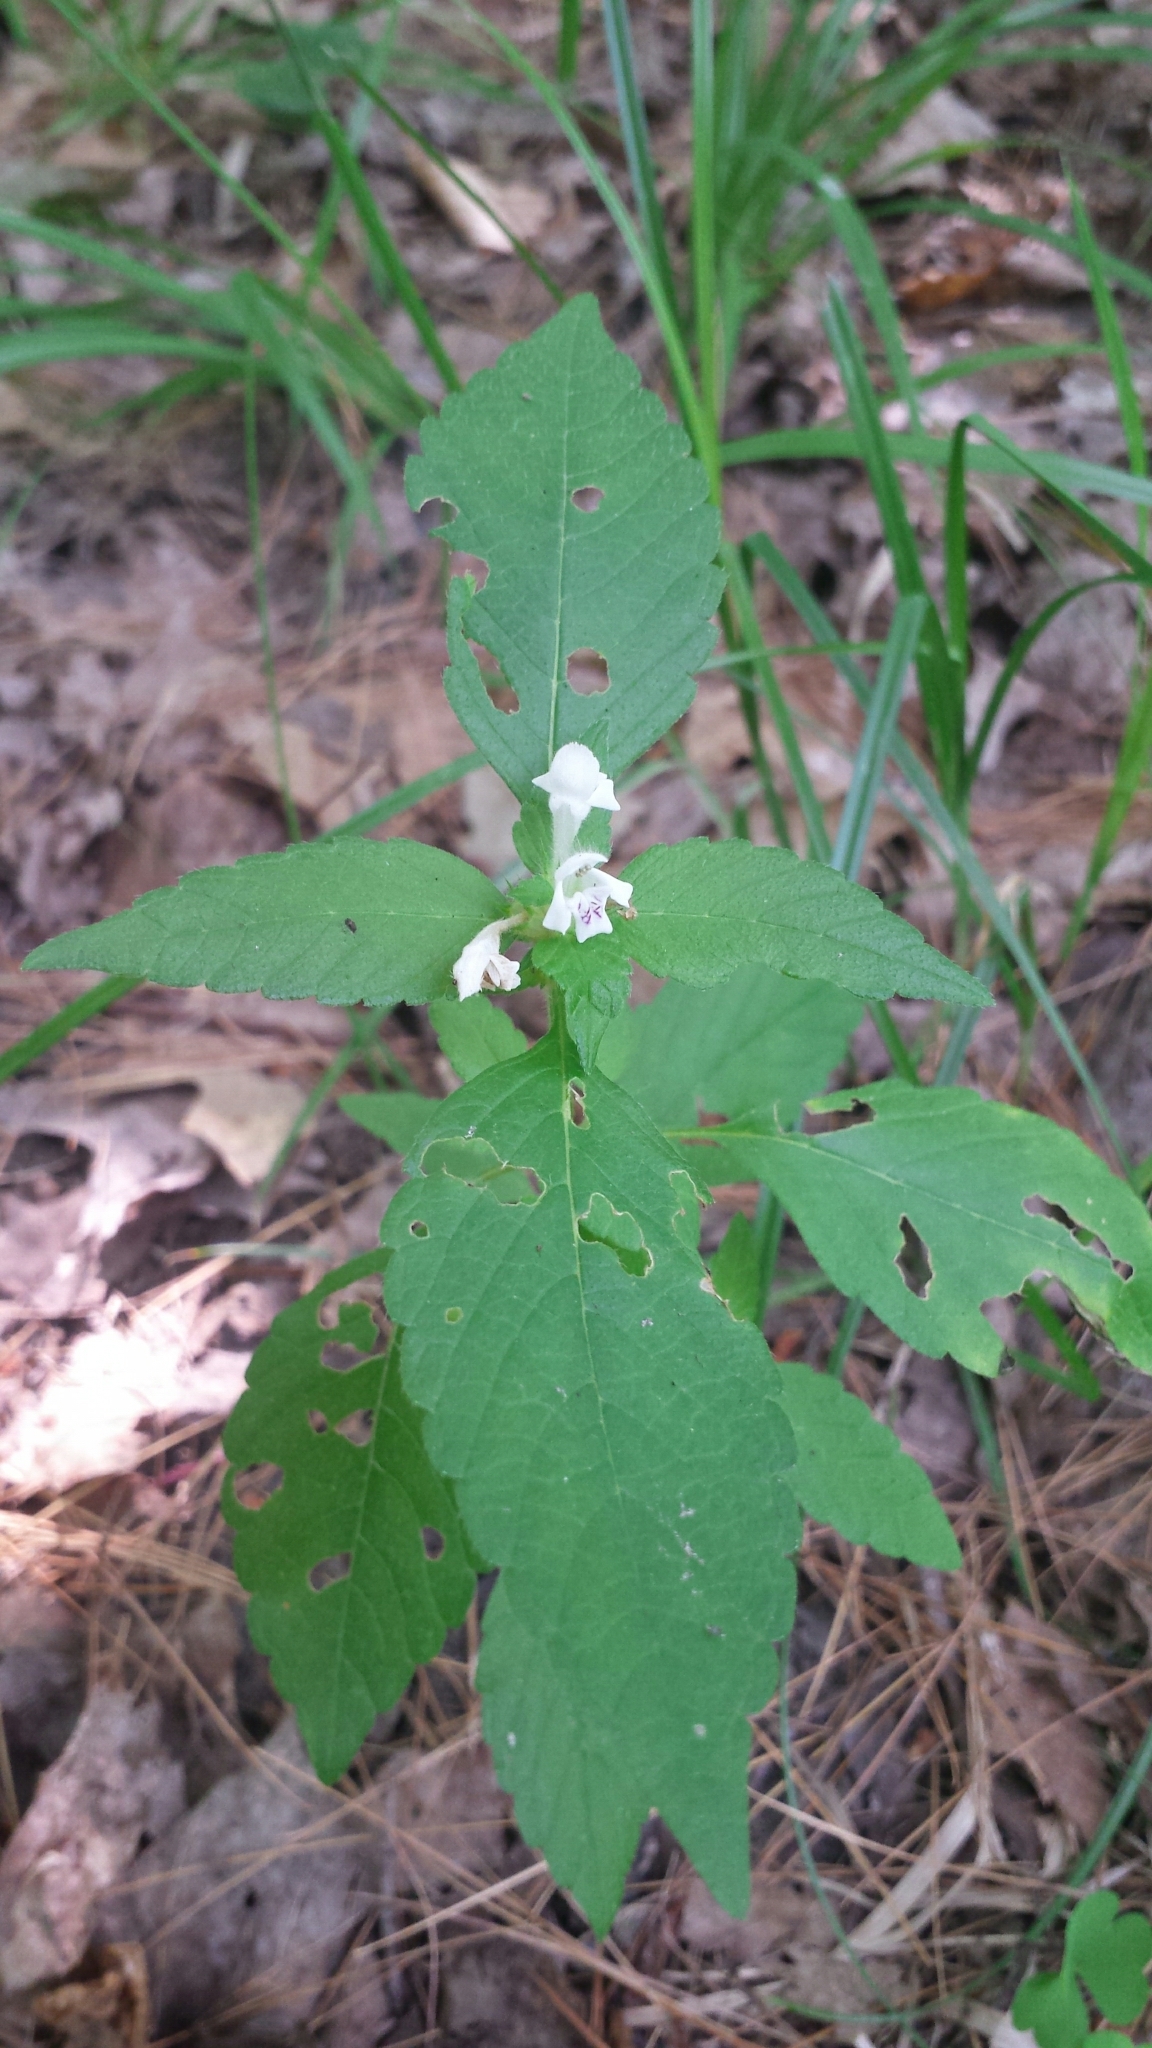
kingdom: Plantae
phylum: Tracheophyta
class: Magnoliopsida
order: Lamiales
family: Lamiaceae
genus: Galeopsis
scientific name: Galeopsis tetrahit
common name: Common hemp-nettle
